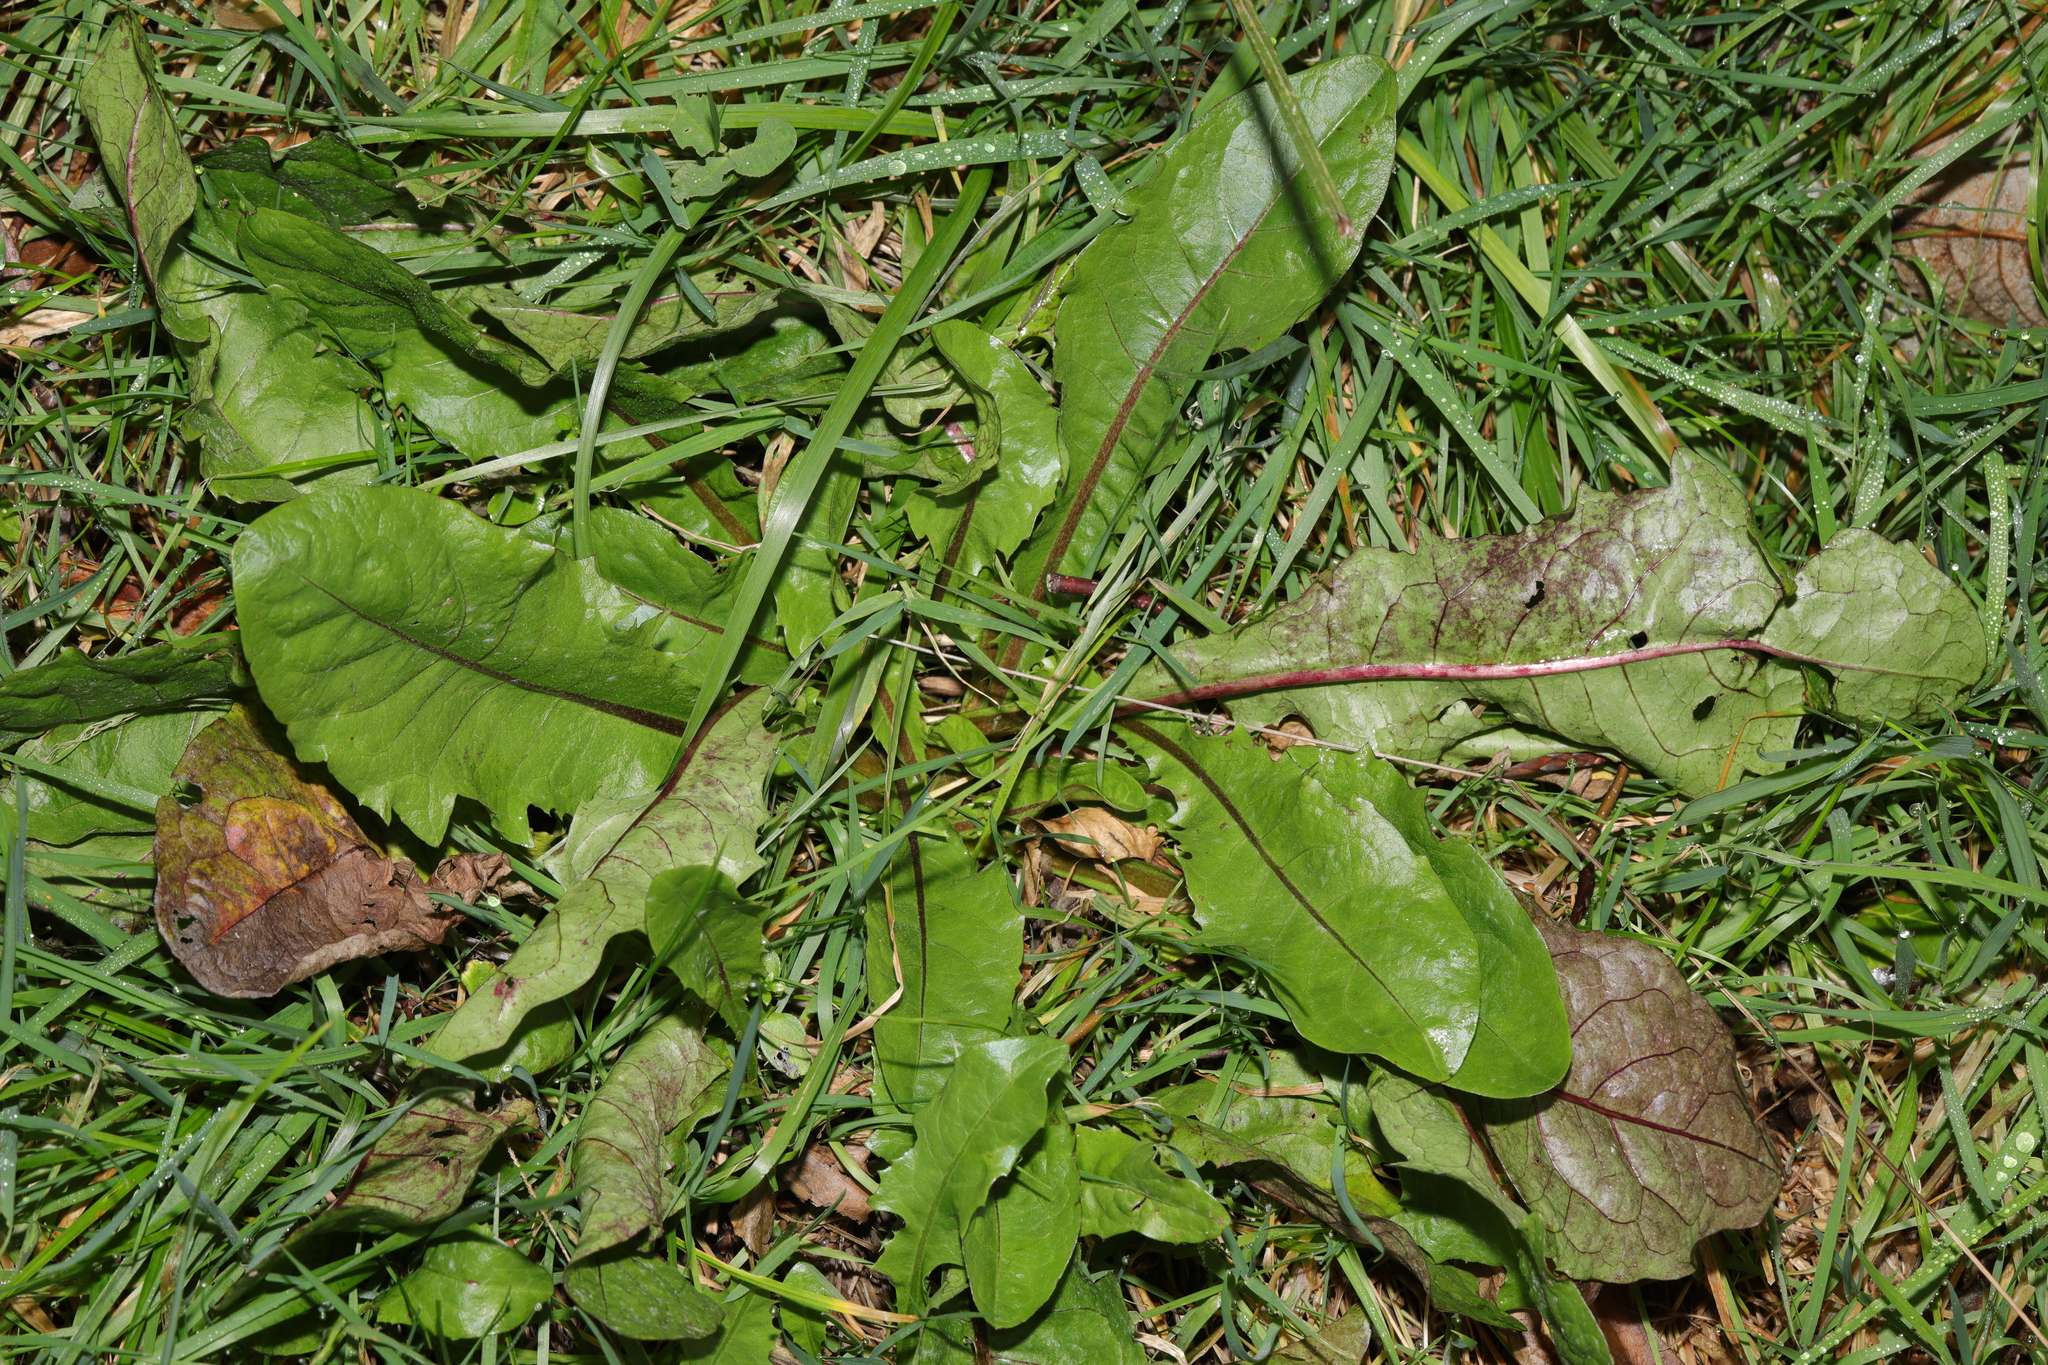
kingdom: Plantae
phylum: Tracheophyta
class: Magnoliopsida
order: Asterales
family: Asteraceae
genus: Taraxacum
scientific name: Taraxacum officinale
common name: Common dandelion
